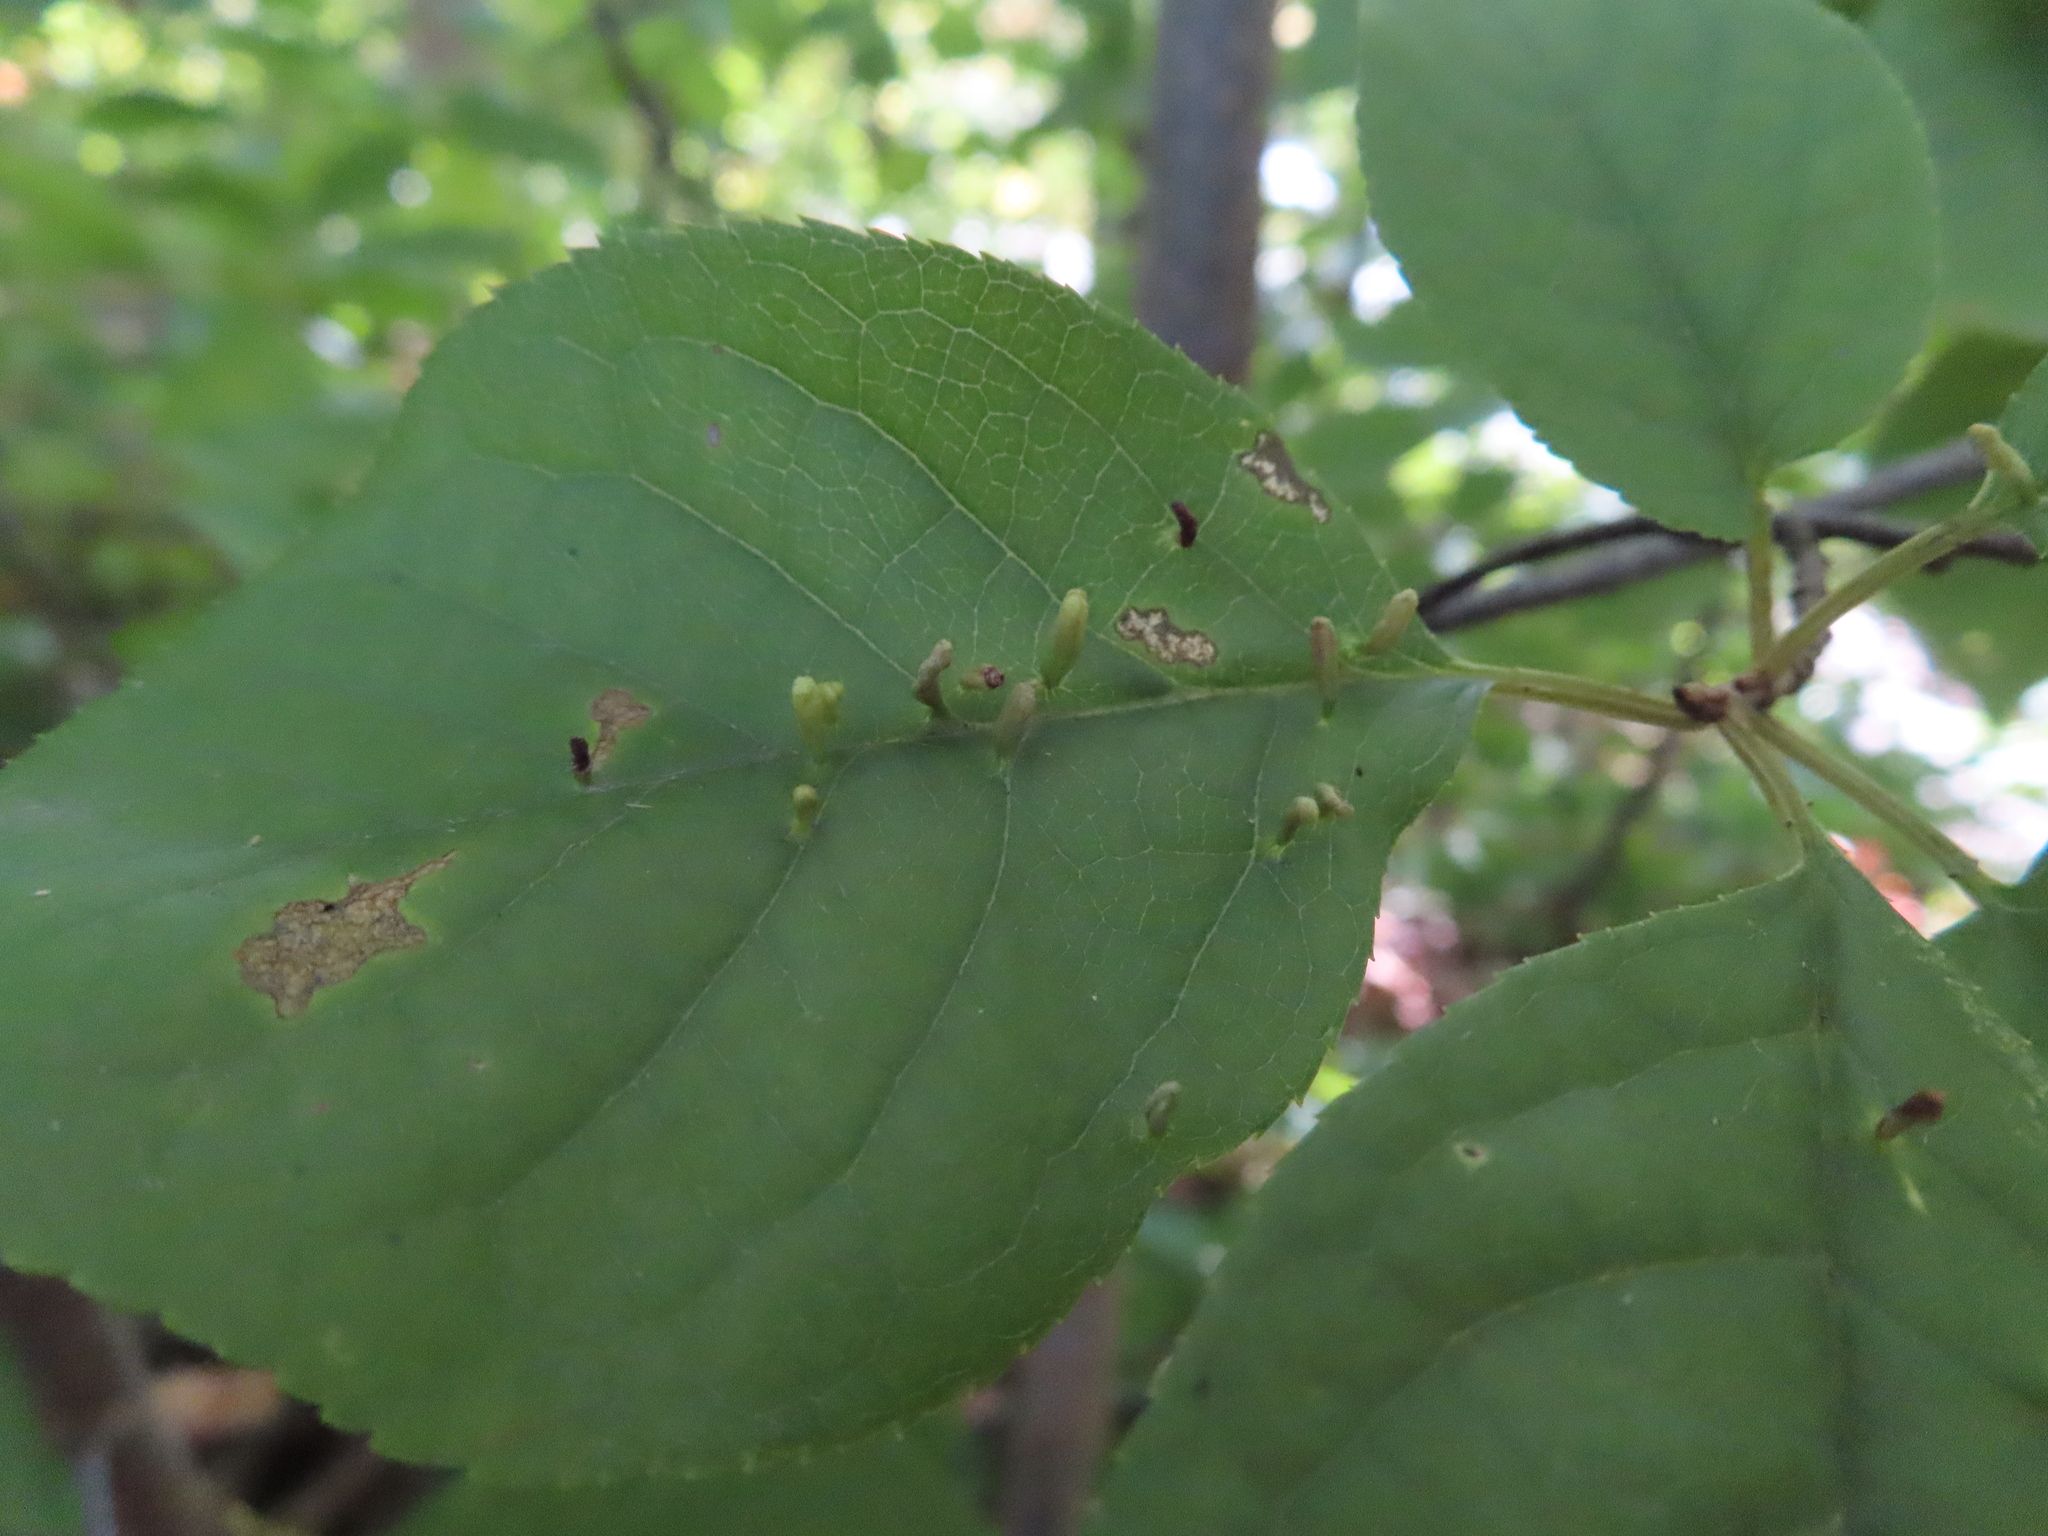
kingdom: Animalia
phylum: Arthropoda
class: Arachnida
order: Trombidiformes
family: Eriophyidae
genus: Eriophyes
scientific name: Eriophyes emarginatae
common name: Plum leaf gall mite
